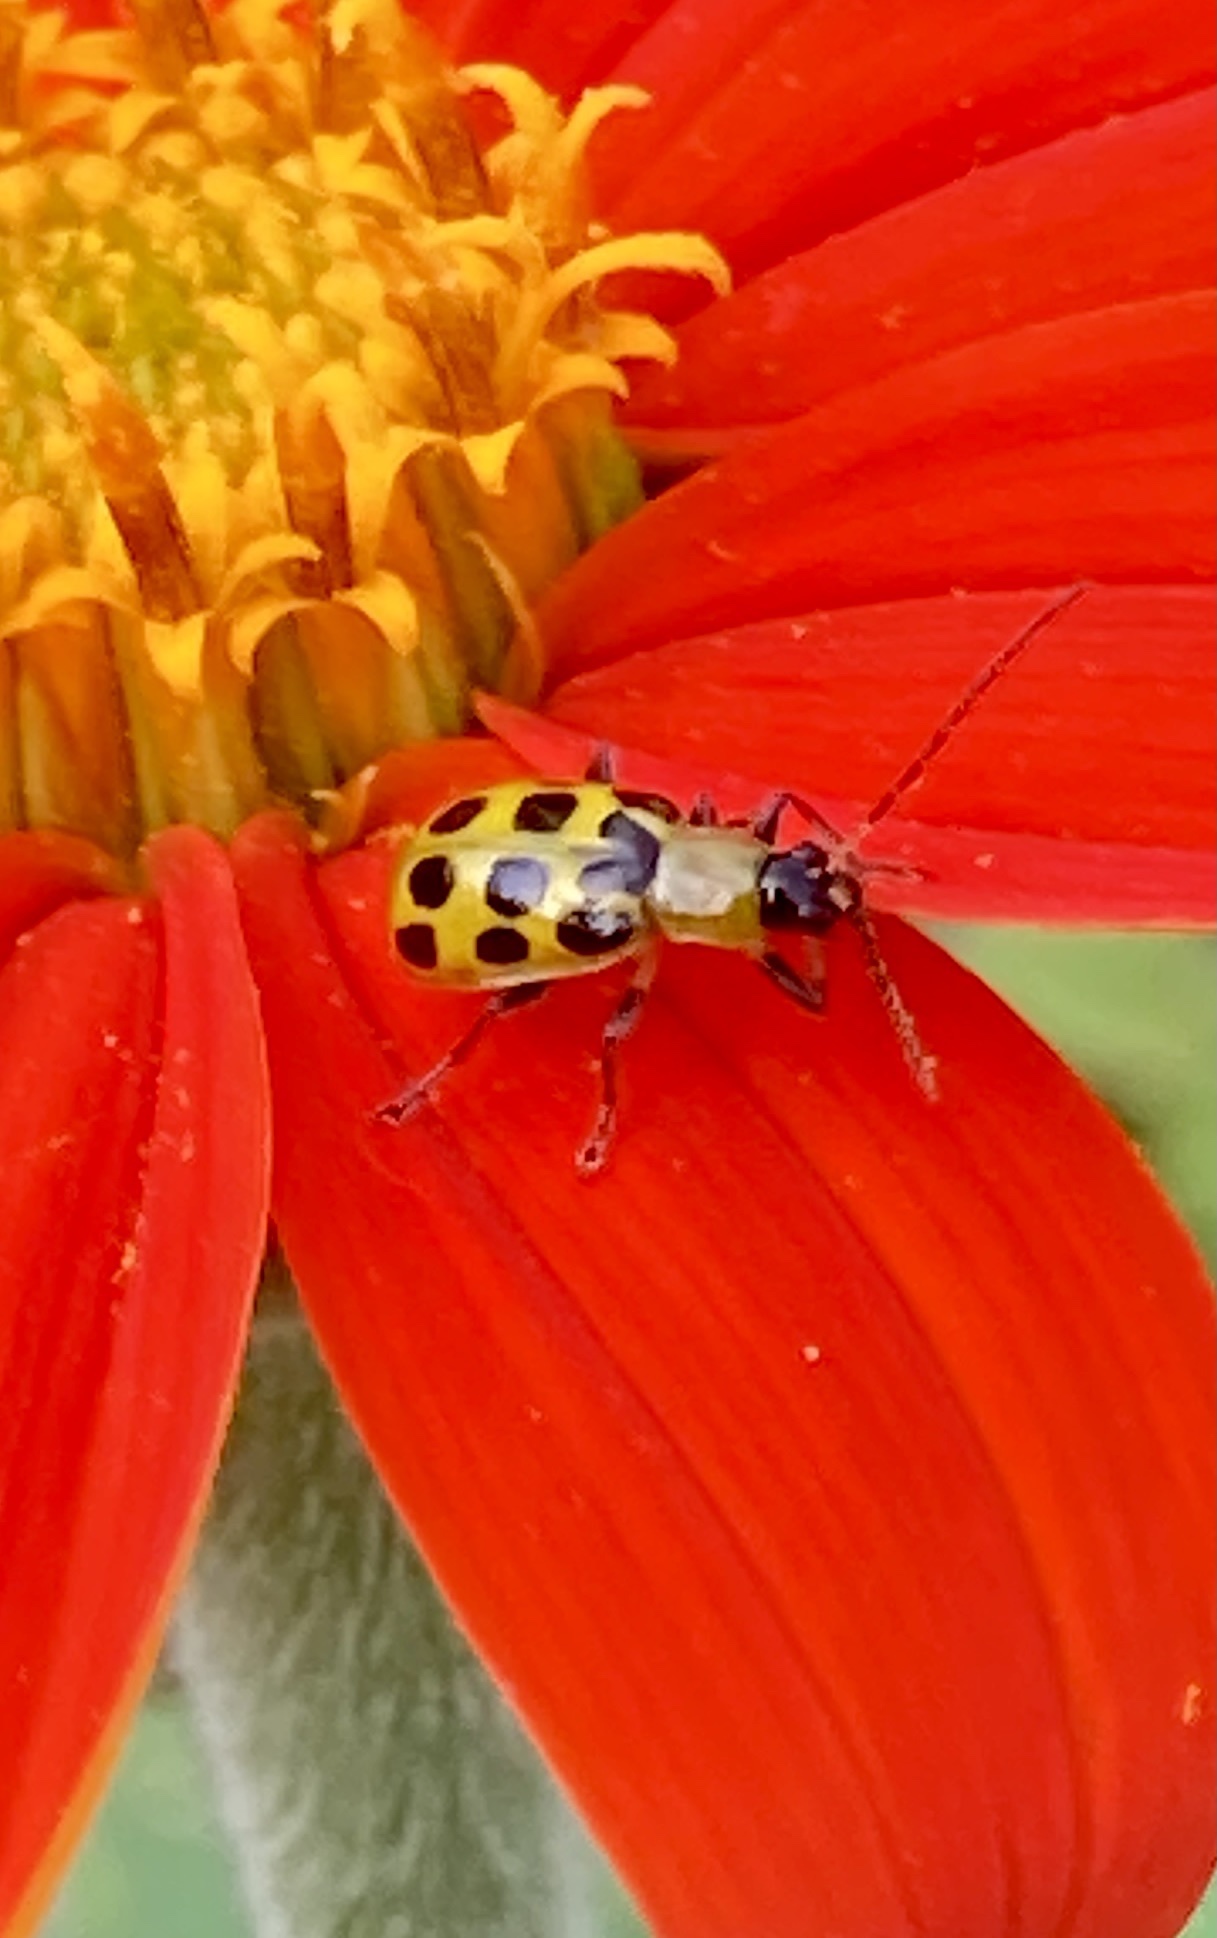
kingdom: Animalia
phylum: Arthropoda
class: Insecta
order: Coleoptera
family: Chrysomelidae
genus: Diabrotica
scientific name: Diabrotica undecimpunctata
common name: Spotted cucumber beetle
